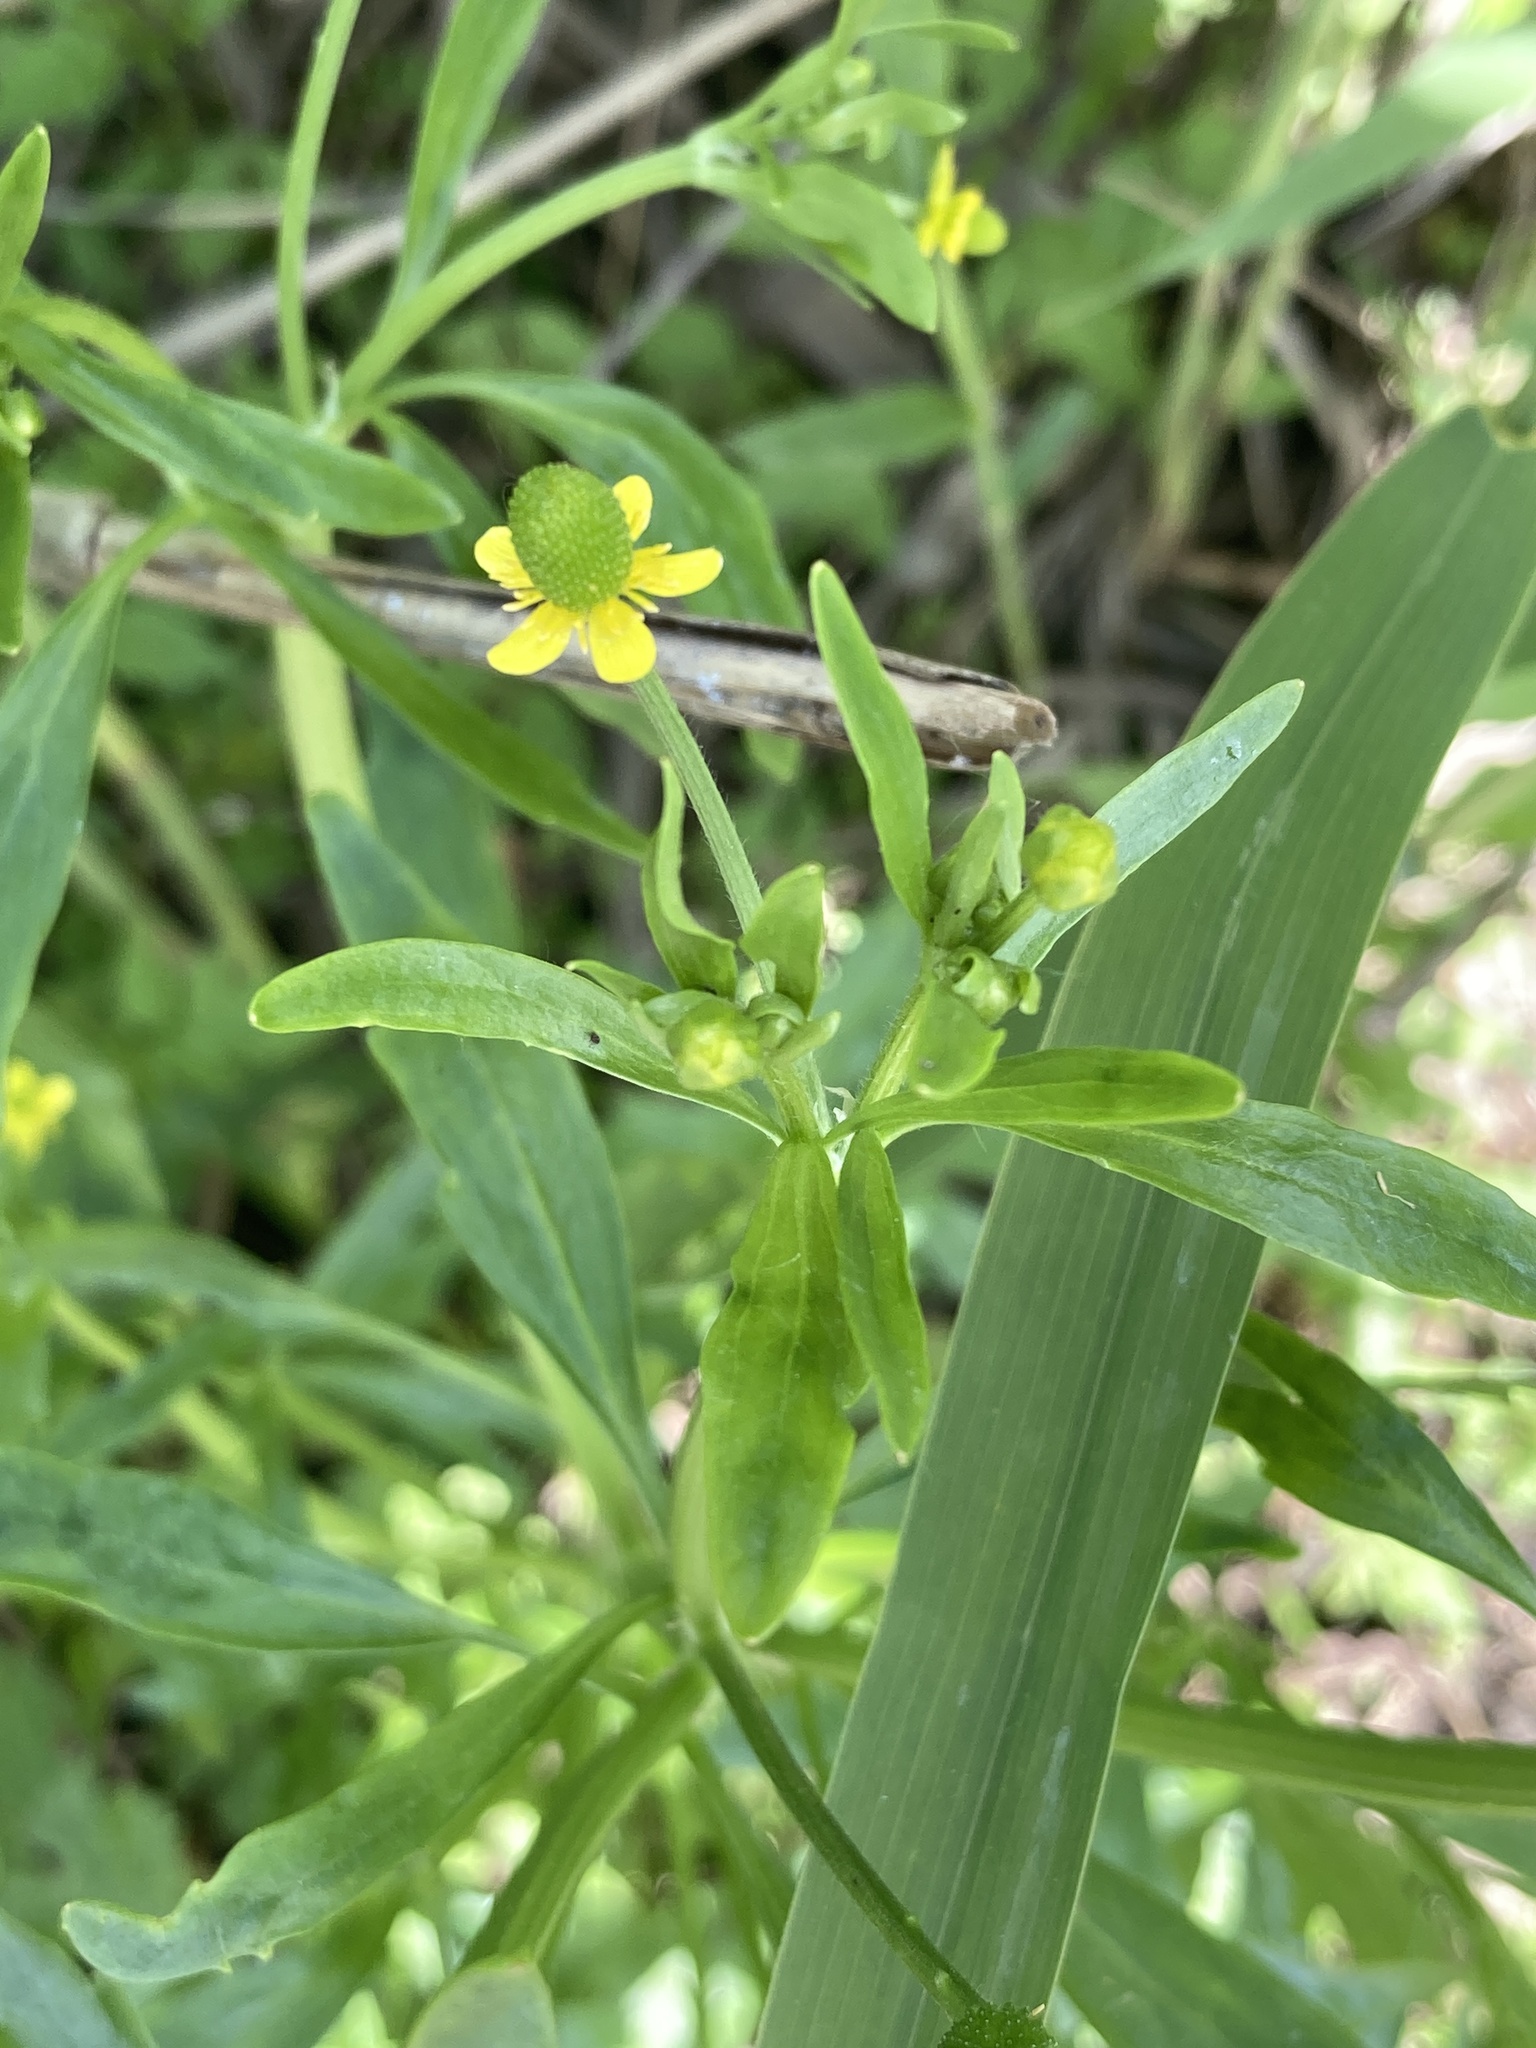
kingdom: Plantae
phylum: Tracheophyta
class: Magnoliopsida
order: Ranunculales
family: Ranunculaceae
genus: Ranunculus
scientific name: Ranunculus sceleratus
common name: Celery-leaved buttercup
